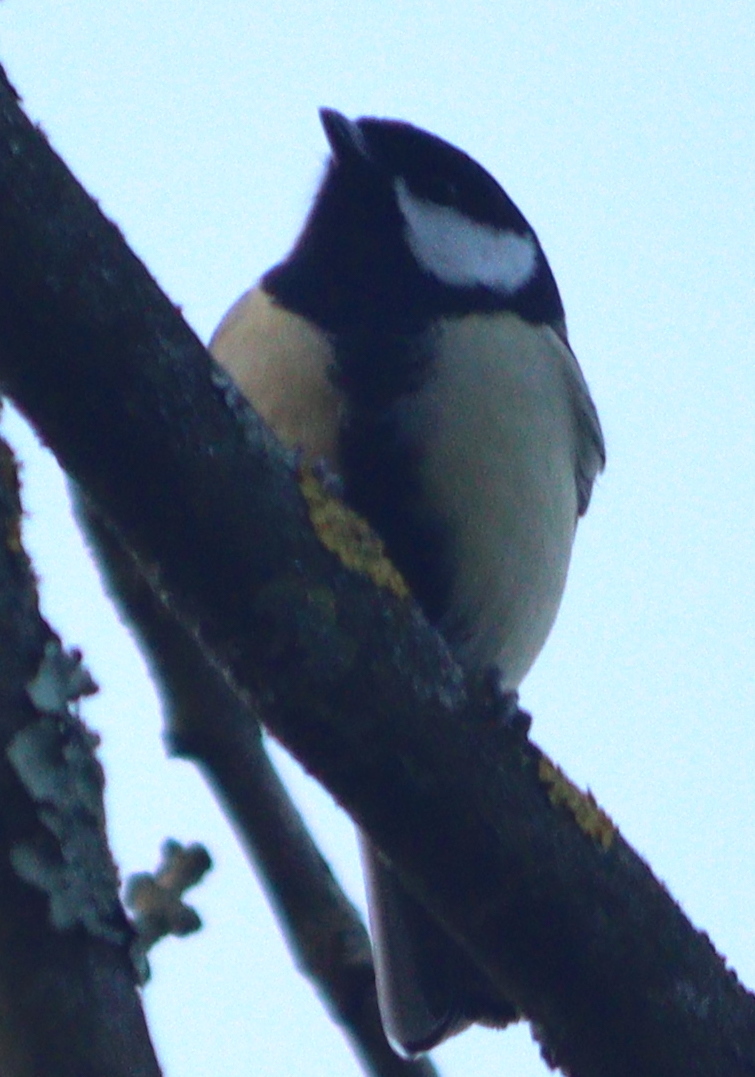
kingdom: Animalia
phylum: Chordata
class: Aves
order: Passeriformes
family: Paridae
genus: Parus
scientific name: Parus major
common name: Great tit
